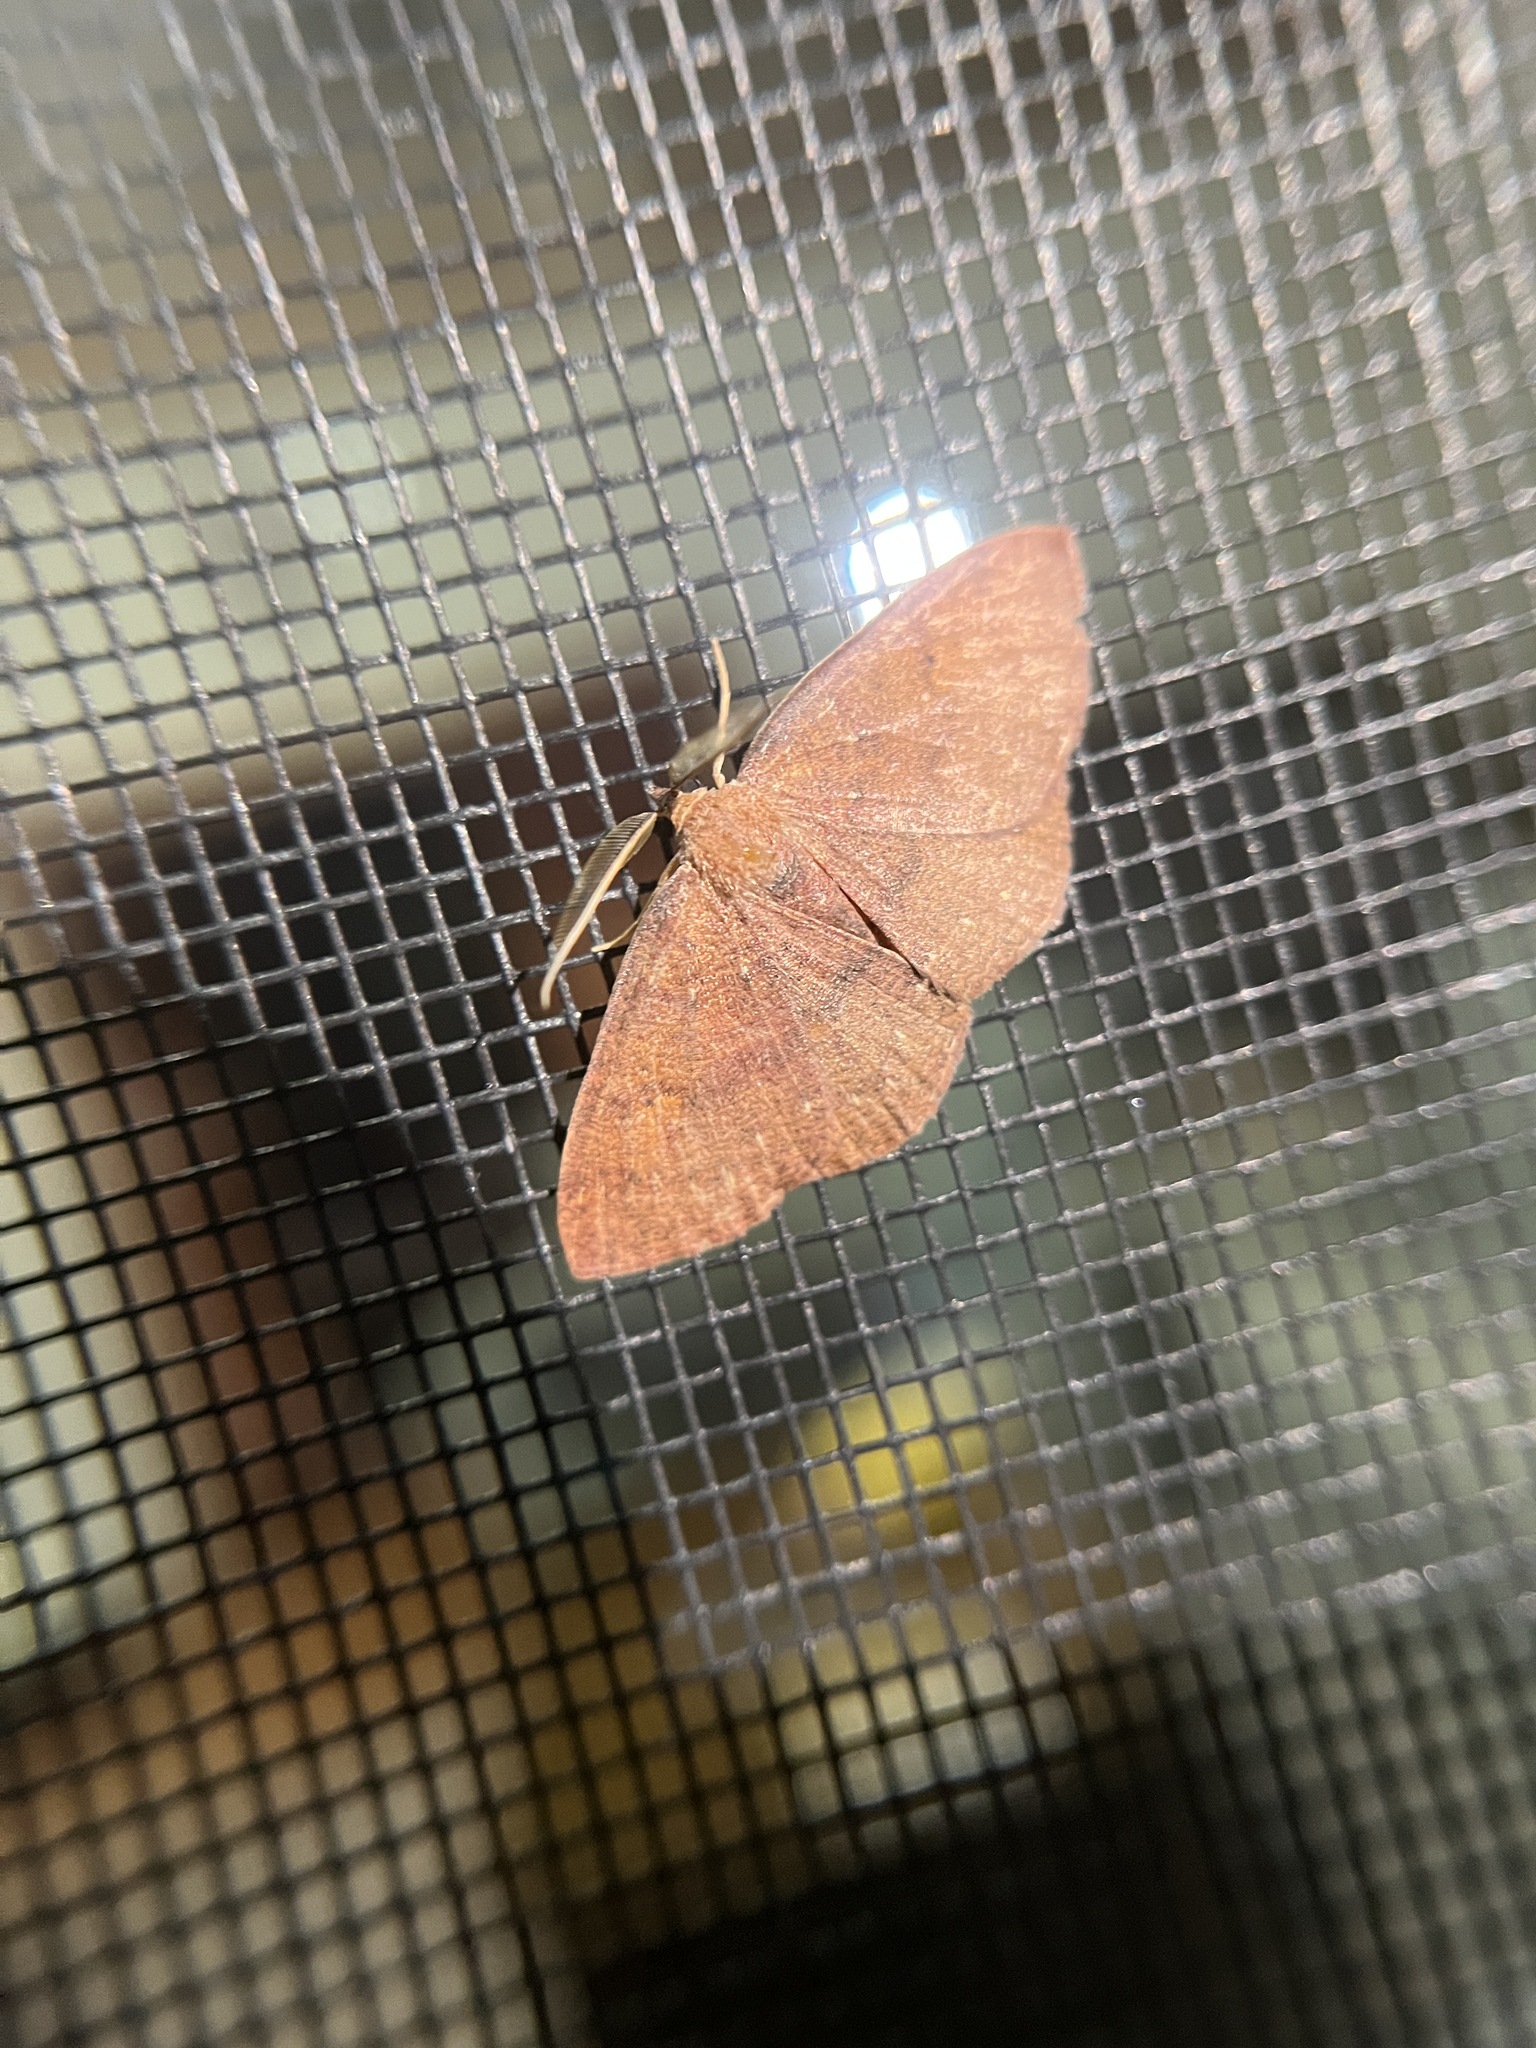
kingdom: Animalia
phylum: Arthropoda
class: Insecta
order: Lepidoptera
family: Geometridae
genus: Ilexia
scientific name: Ilexia intractata
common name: Black-dotted ruddy moth
